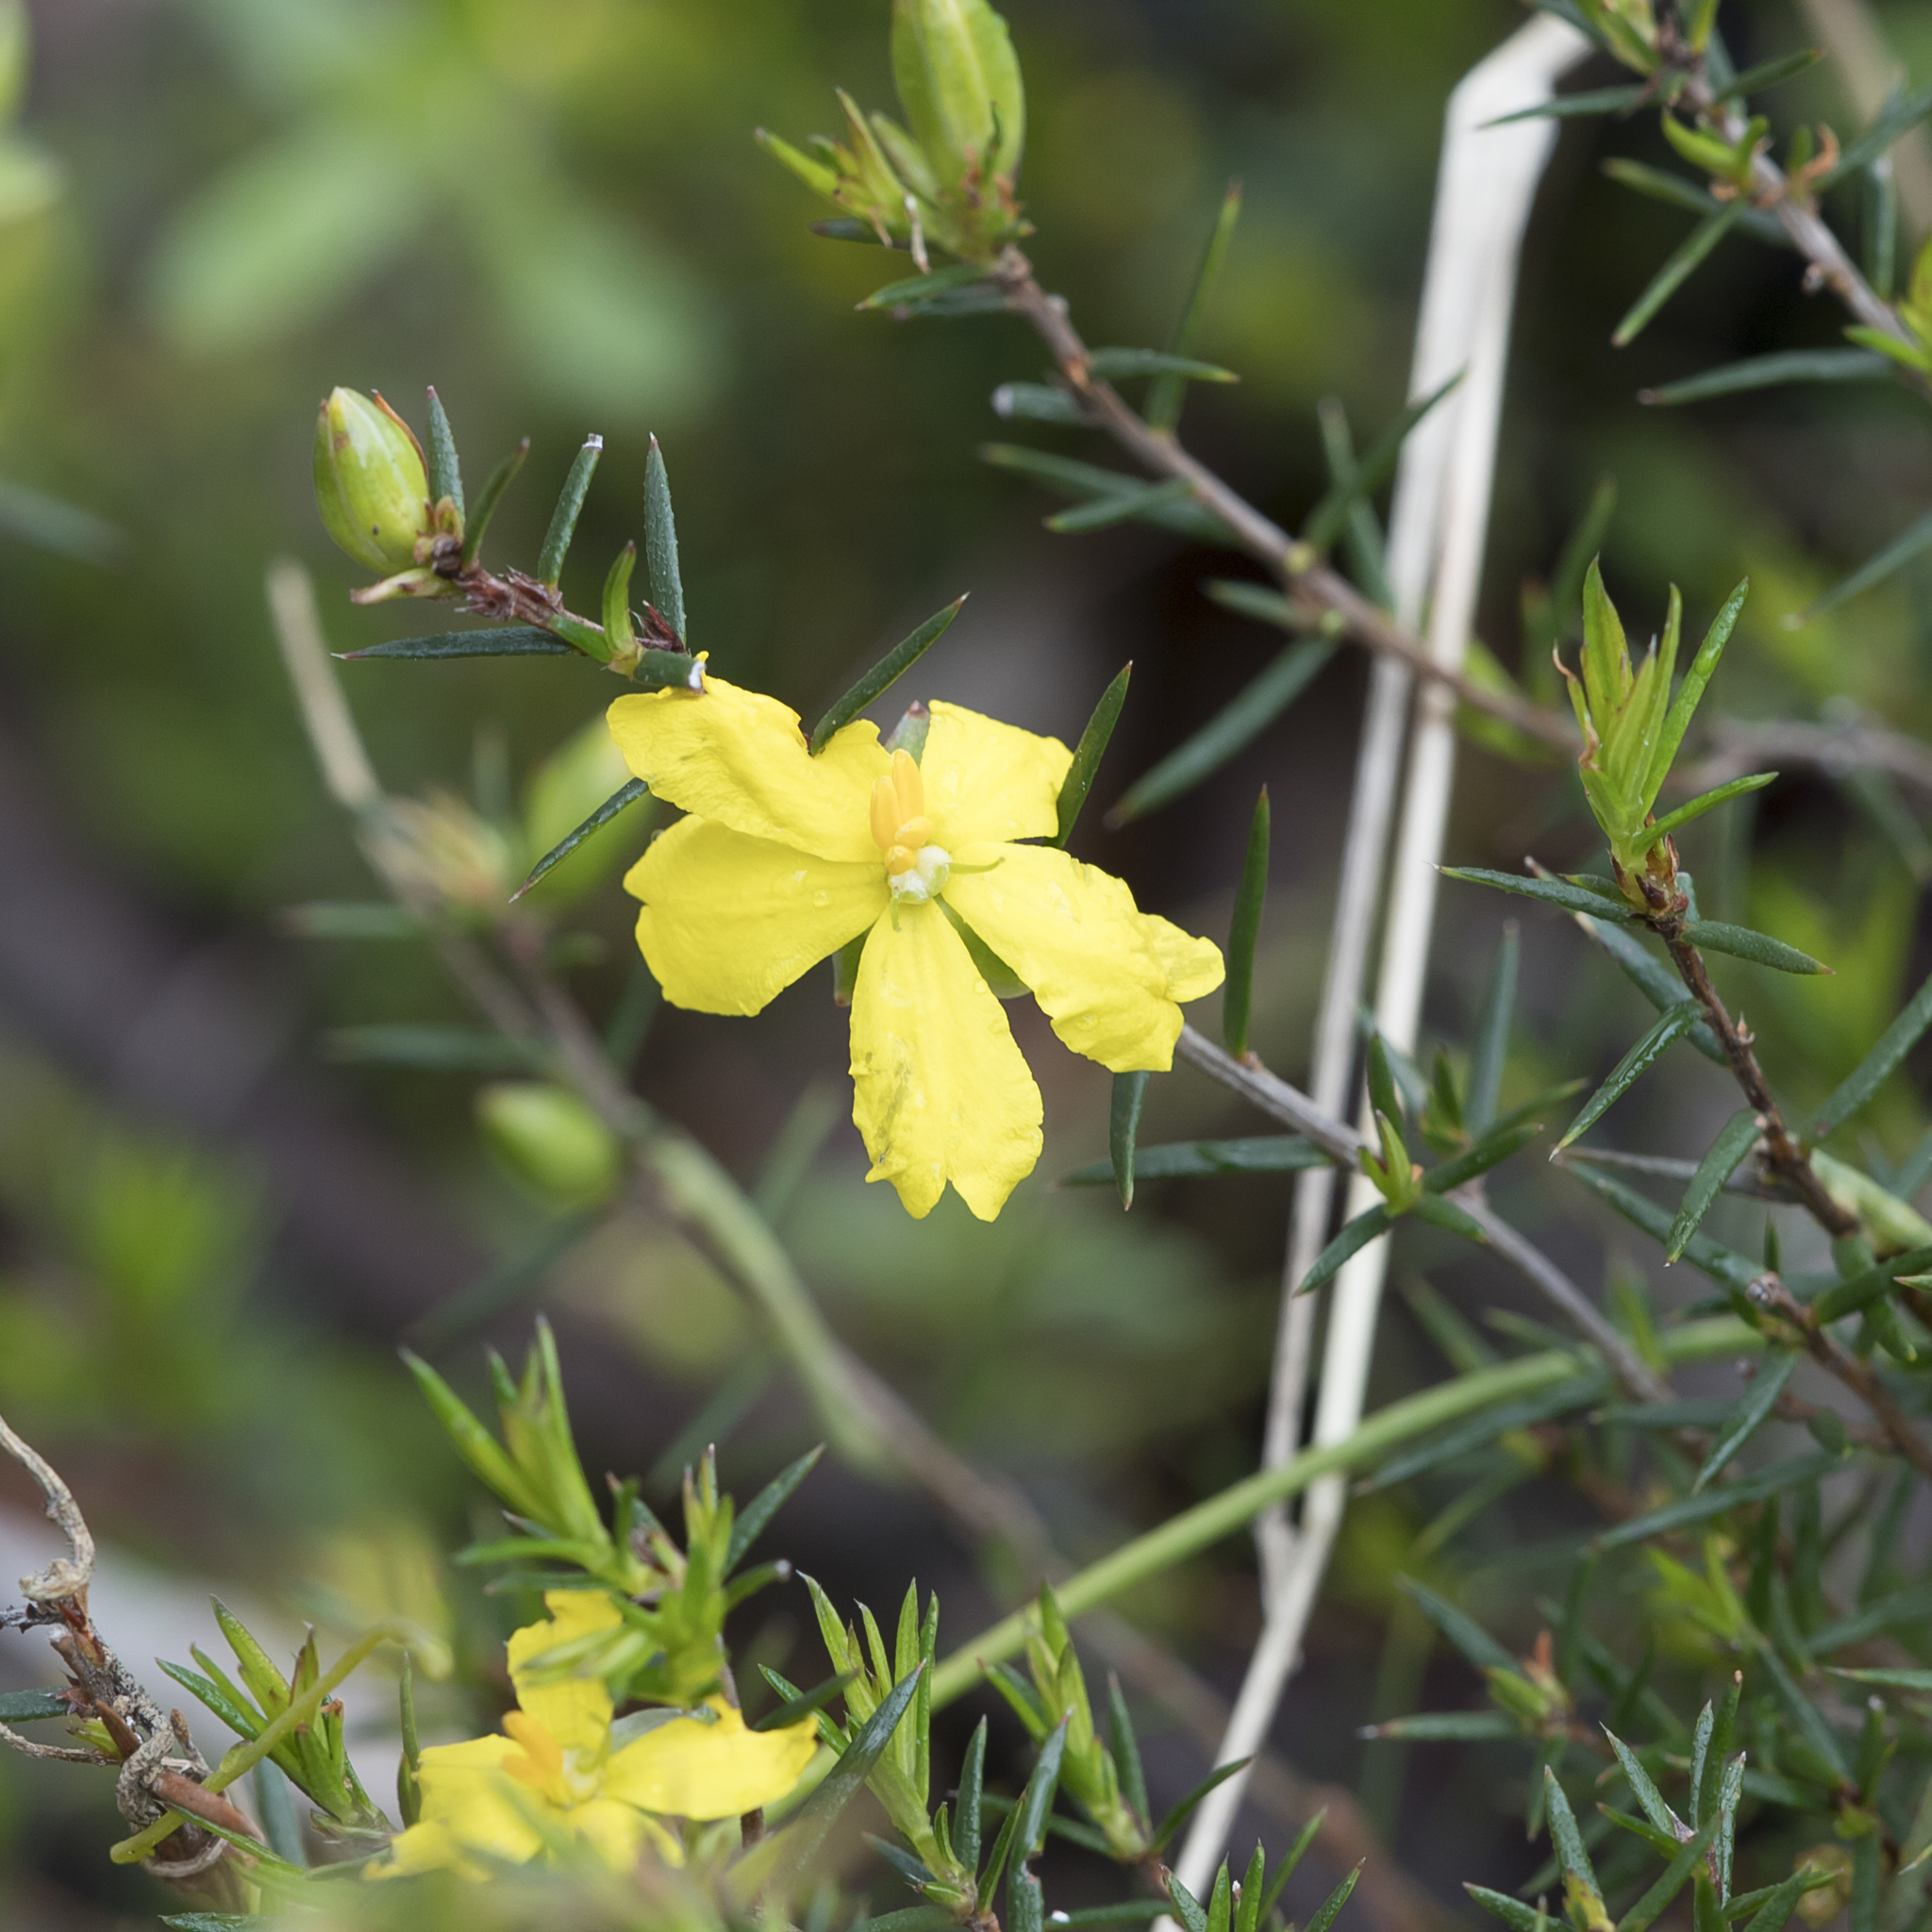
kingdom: Plantae
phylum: Tracheophyta
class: Magnoliopsida
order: Dilleniales
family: Dilleniaceae
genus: Hibbertia
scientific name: Hibbertia exutiacies
